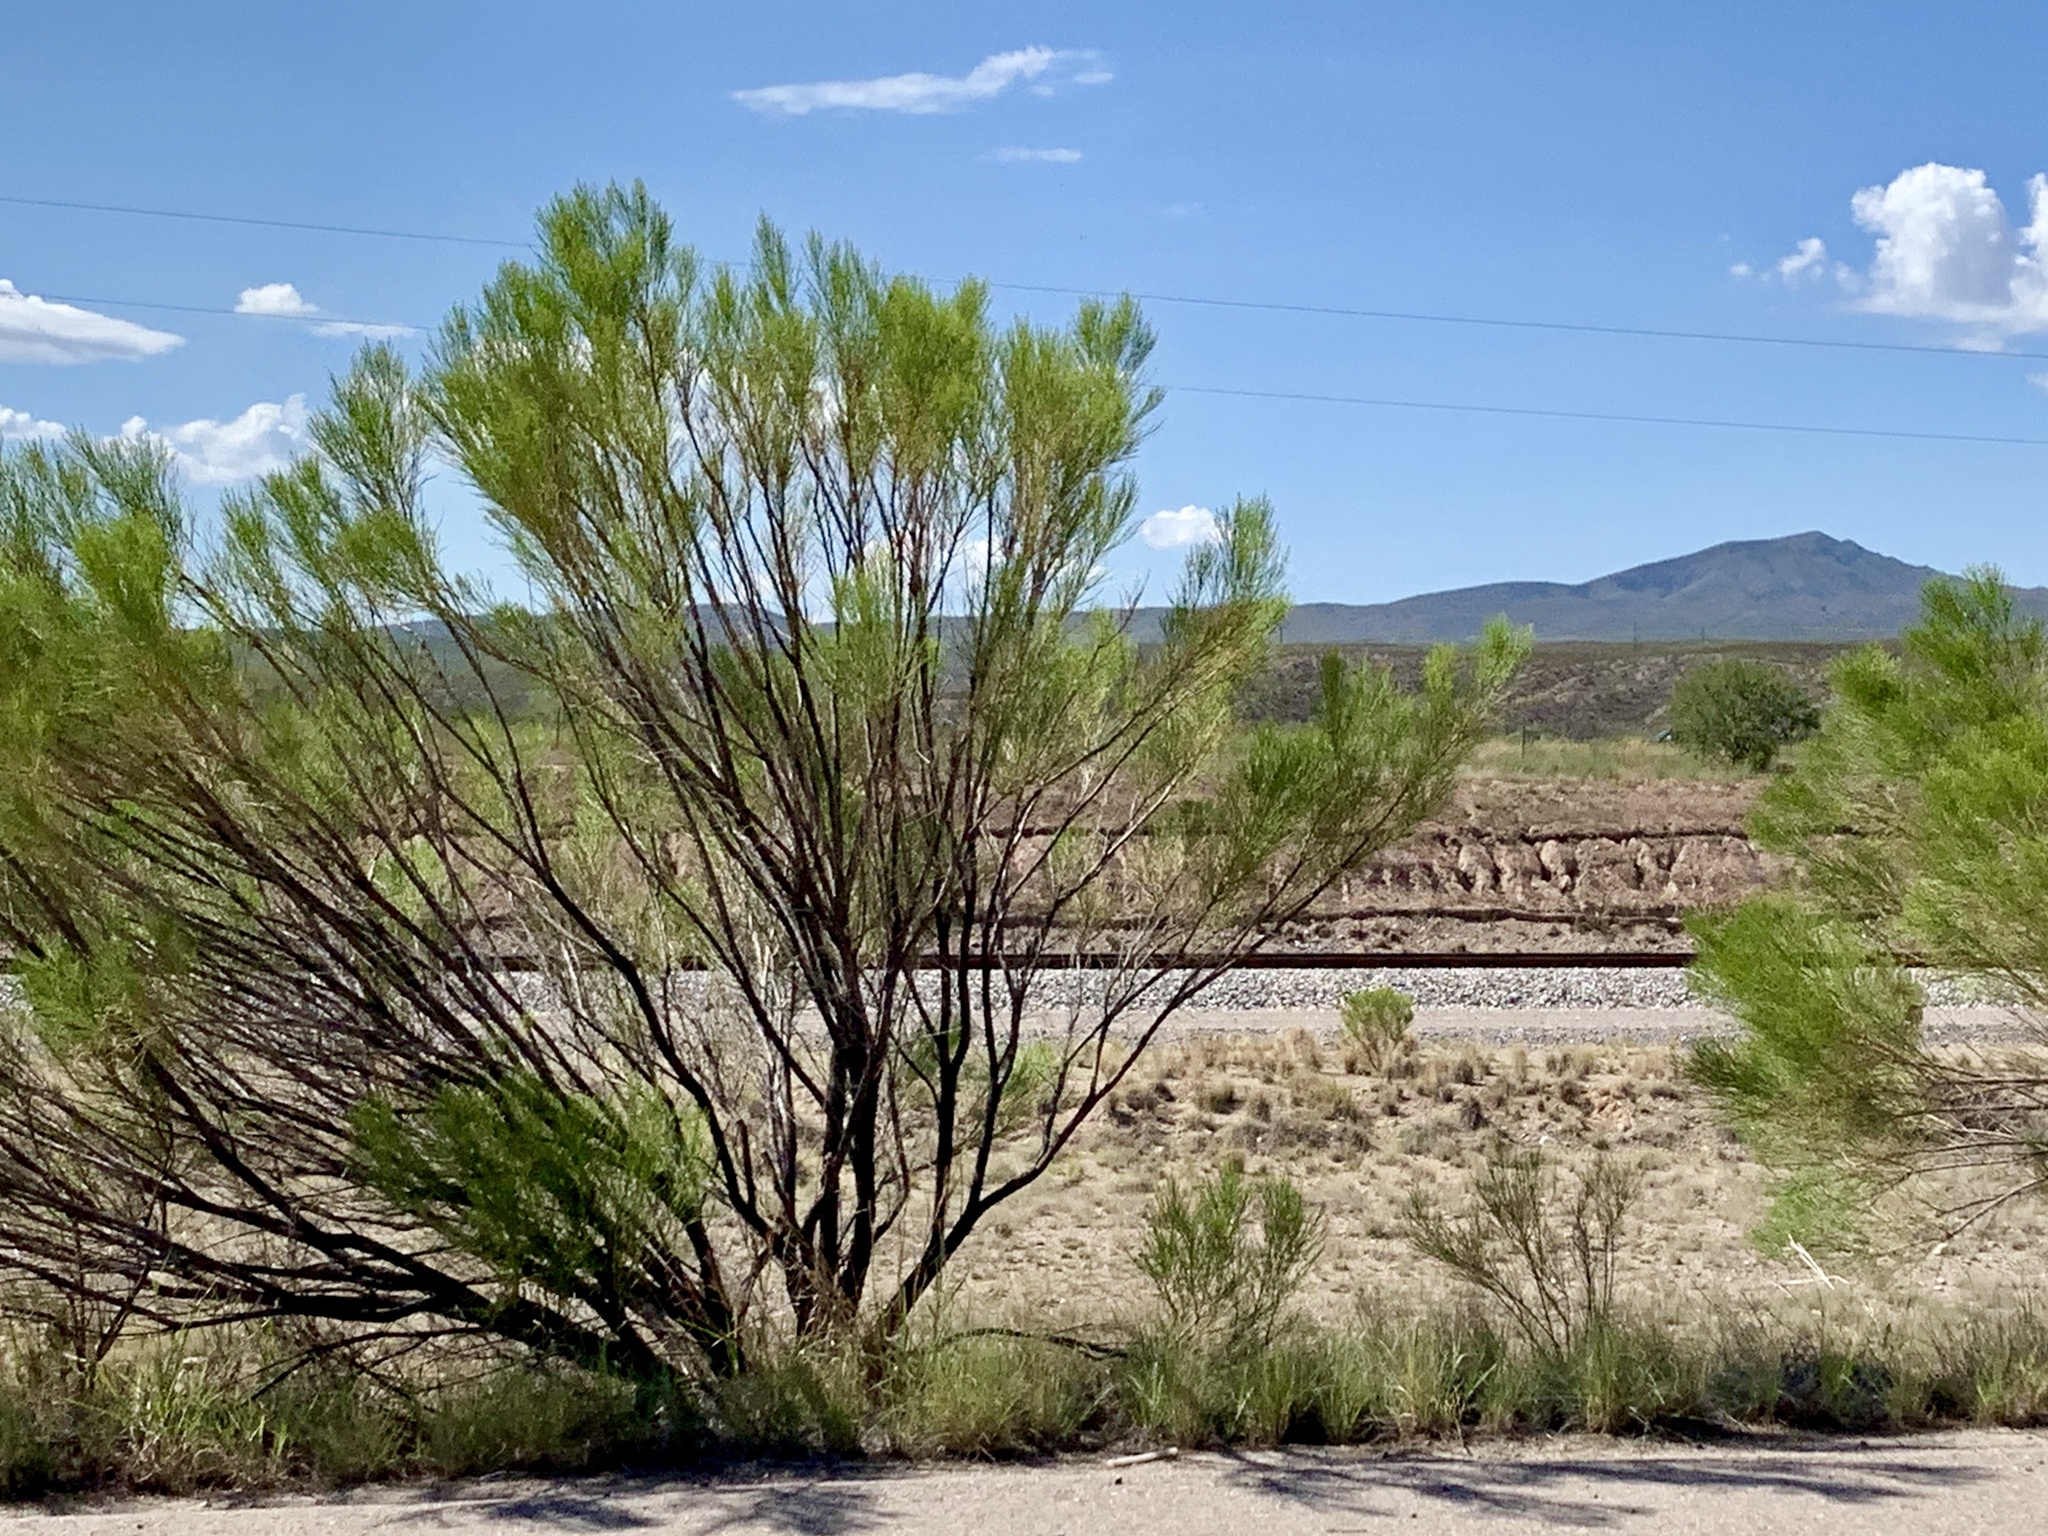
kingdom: Plantae
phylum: Tracheophyta
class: Magnoliopsida
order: Asterales
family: Asteraceae
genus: Baccharis
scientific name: Baccharis sarothroides
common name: Desert-broom
